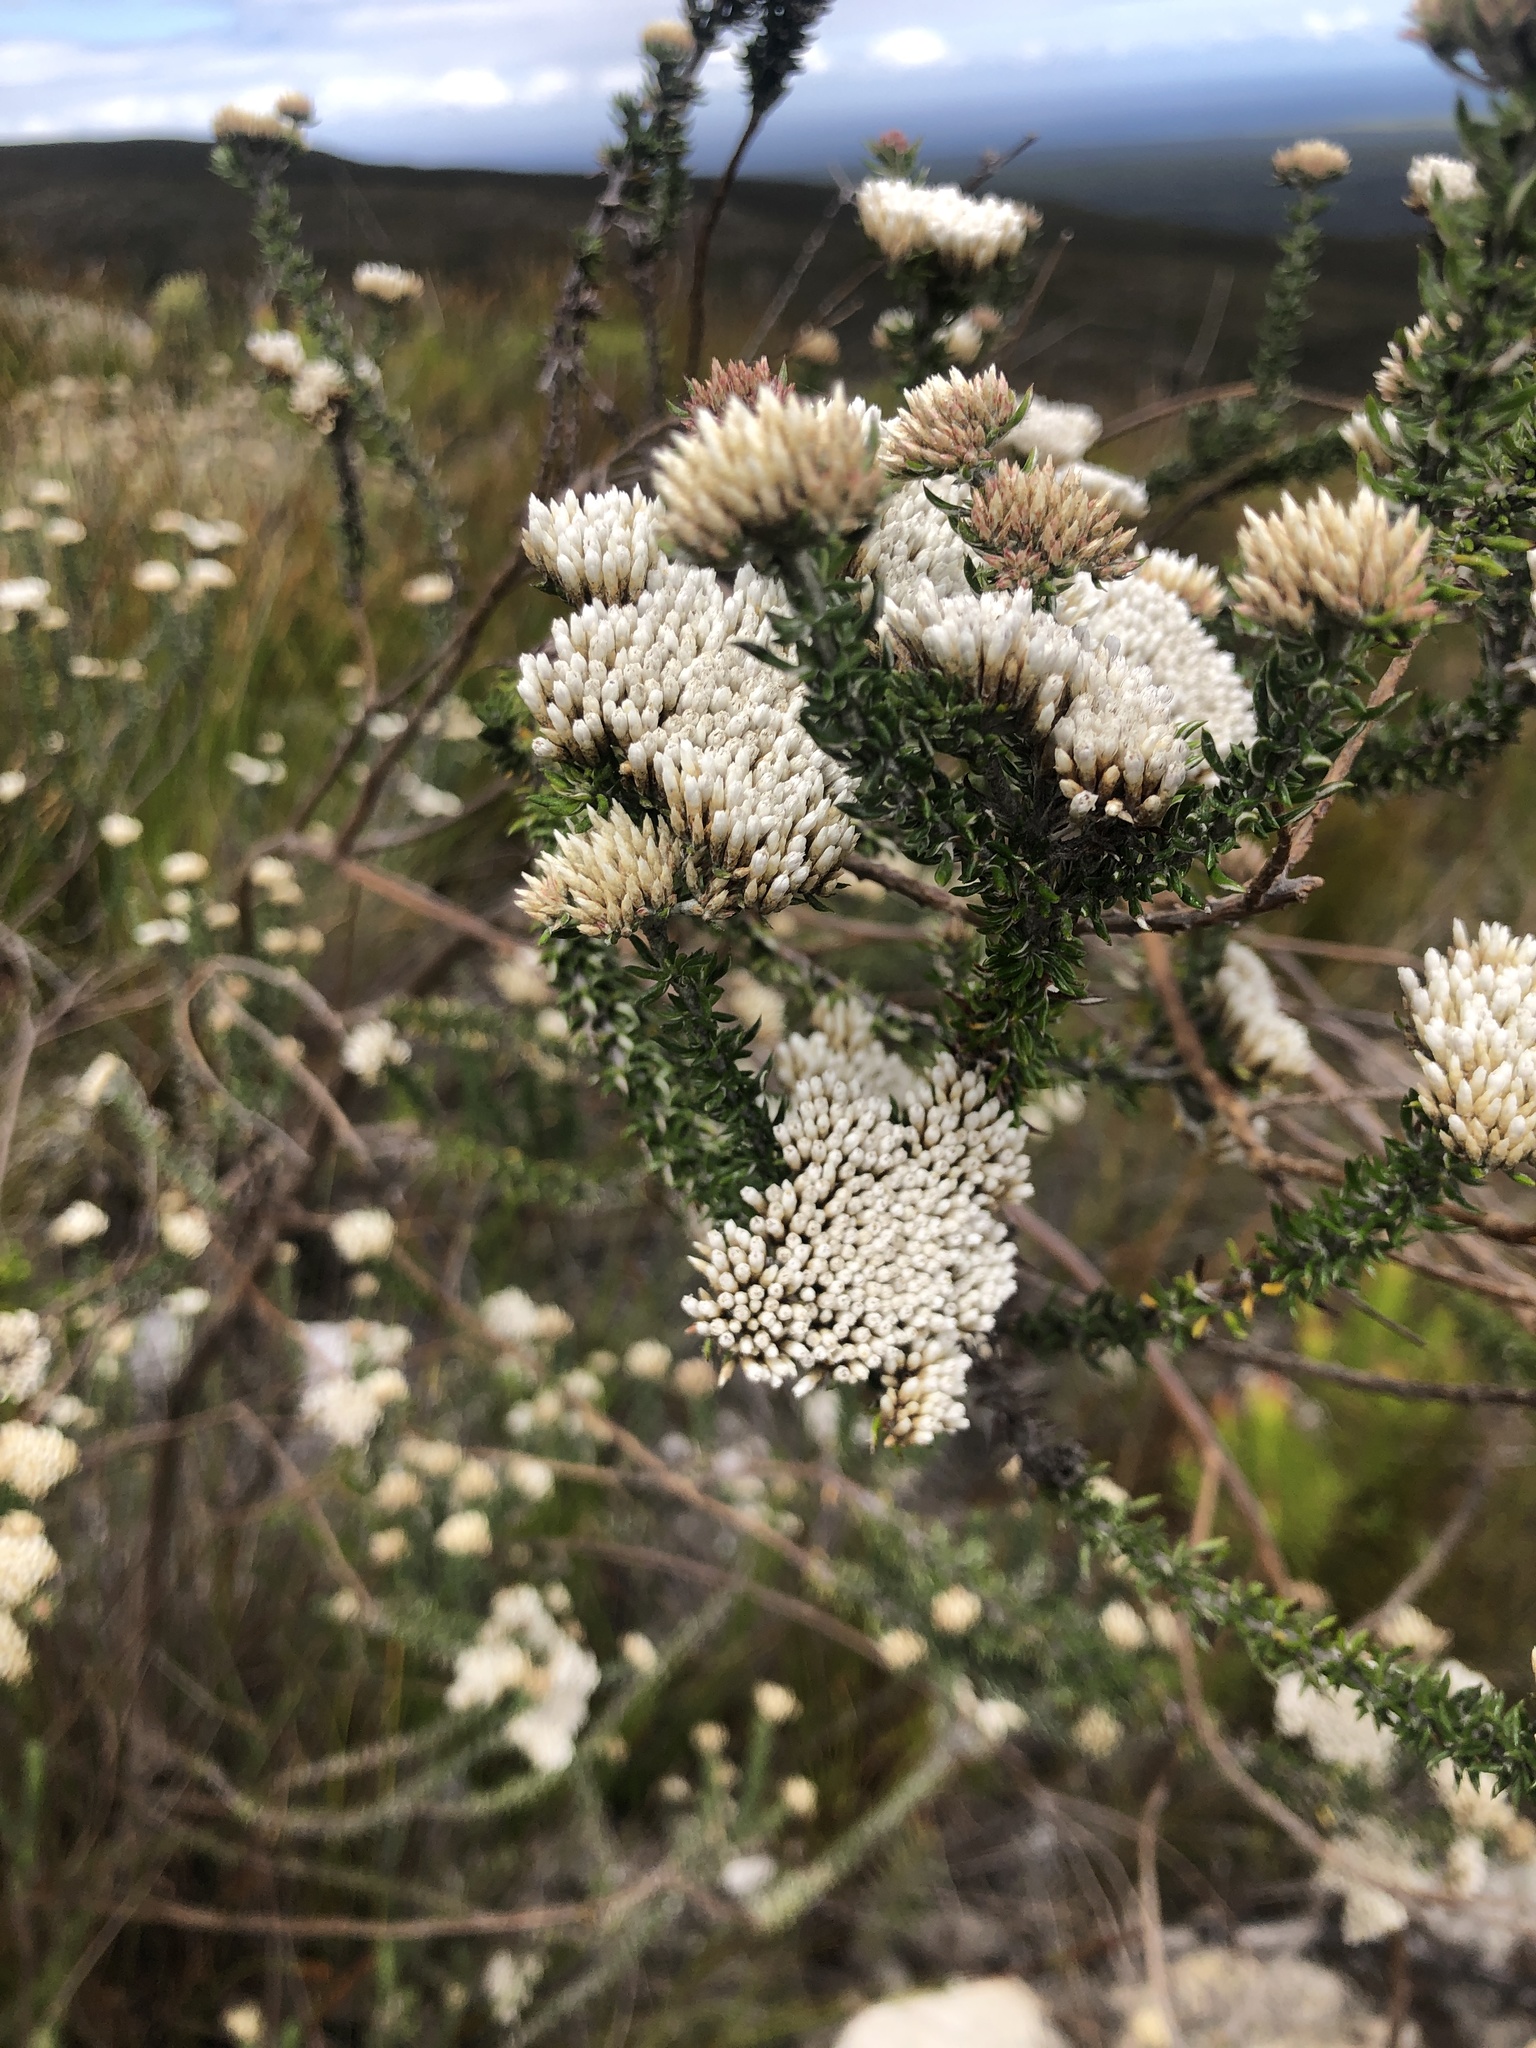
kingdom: Plantae
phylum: Tracheophyta
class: Magnoliopsida
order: Asterales
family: Asteraceae
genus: Metalasia
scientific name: Metalasia muricata
